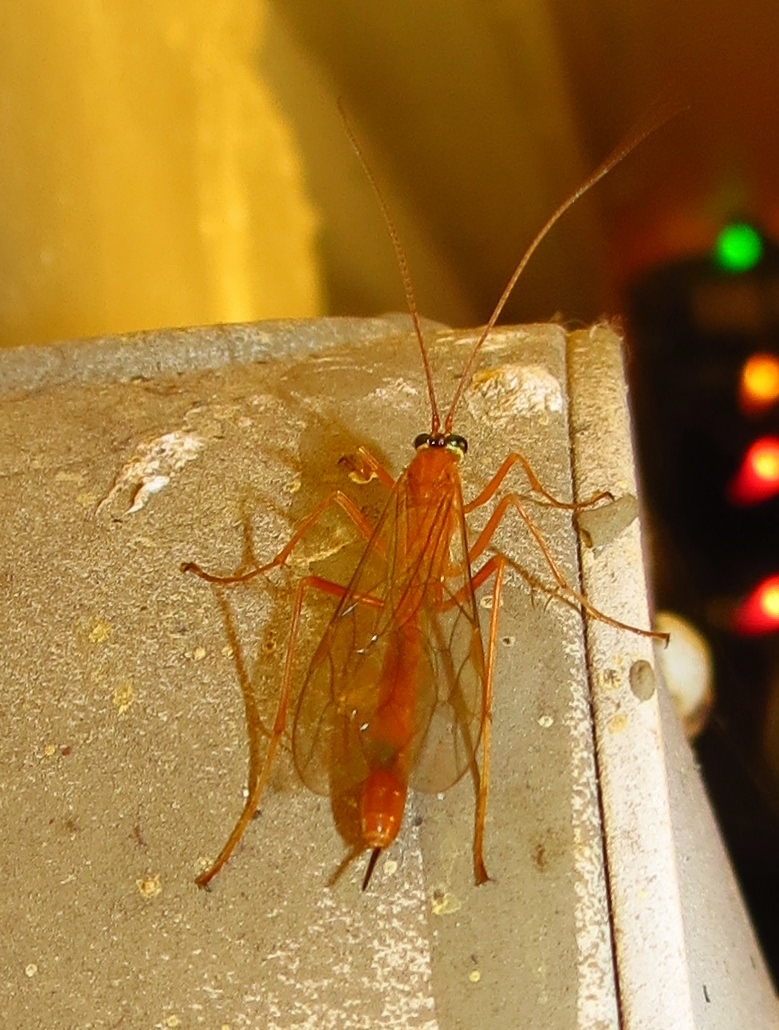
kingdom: Animalia
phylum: Arthropoda
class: Insecta
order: Hymenoptera
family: Ichneumonidae
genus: Netelia
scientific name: Netelia
